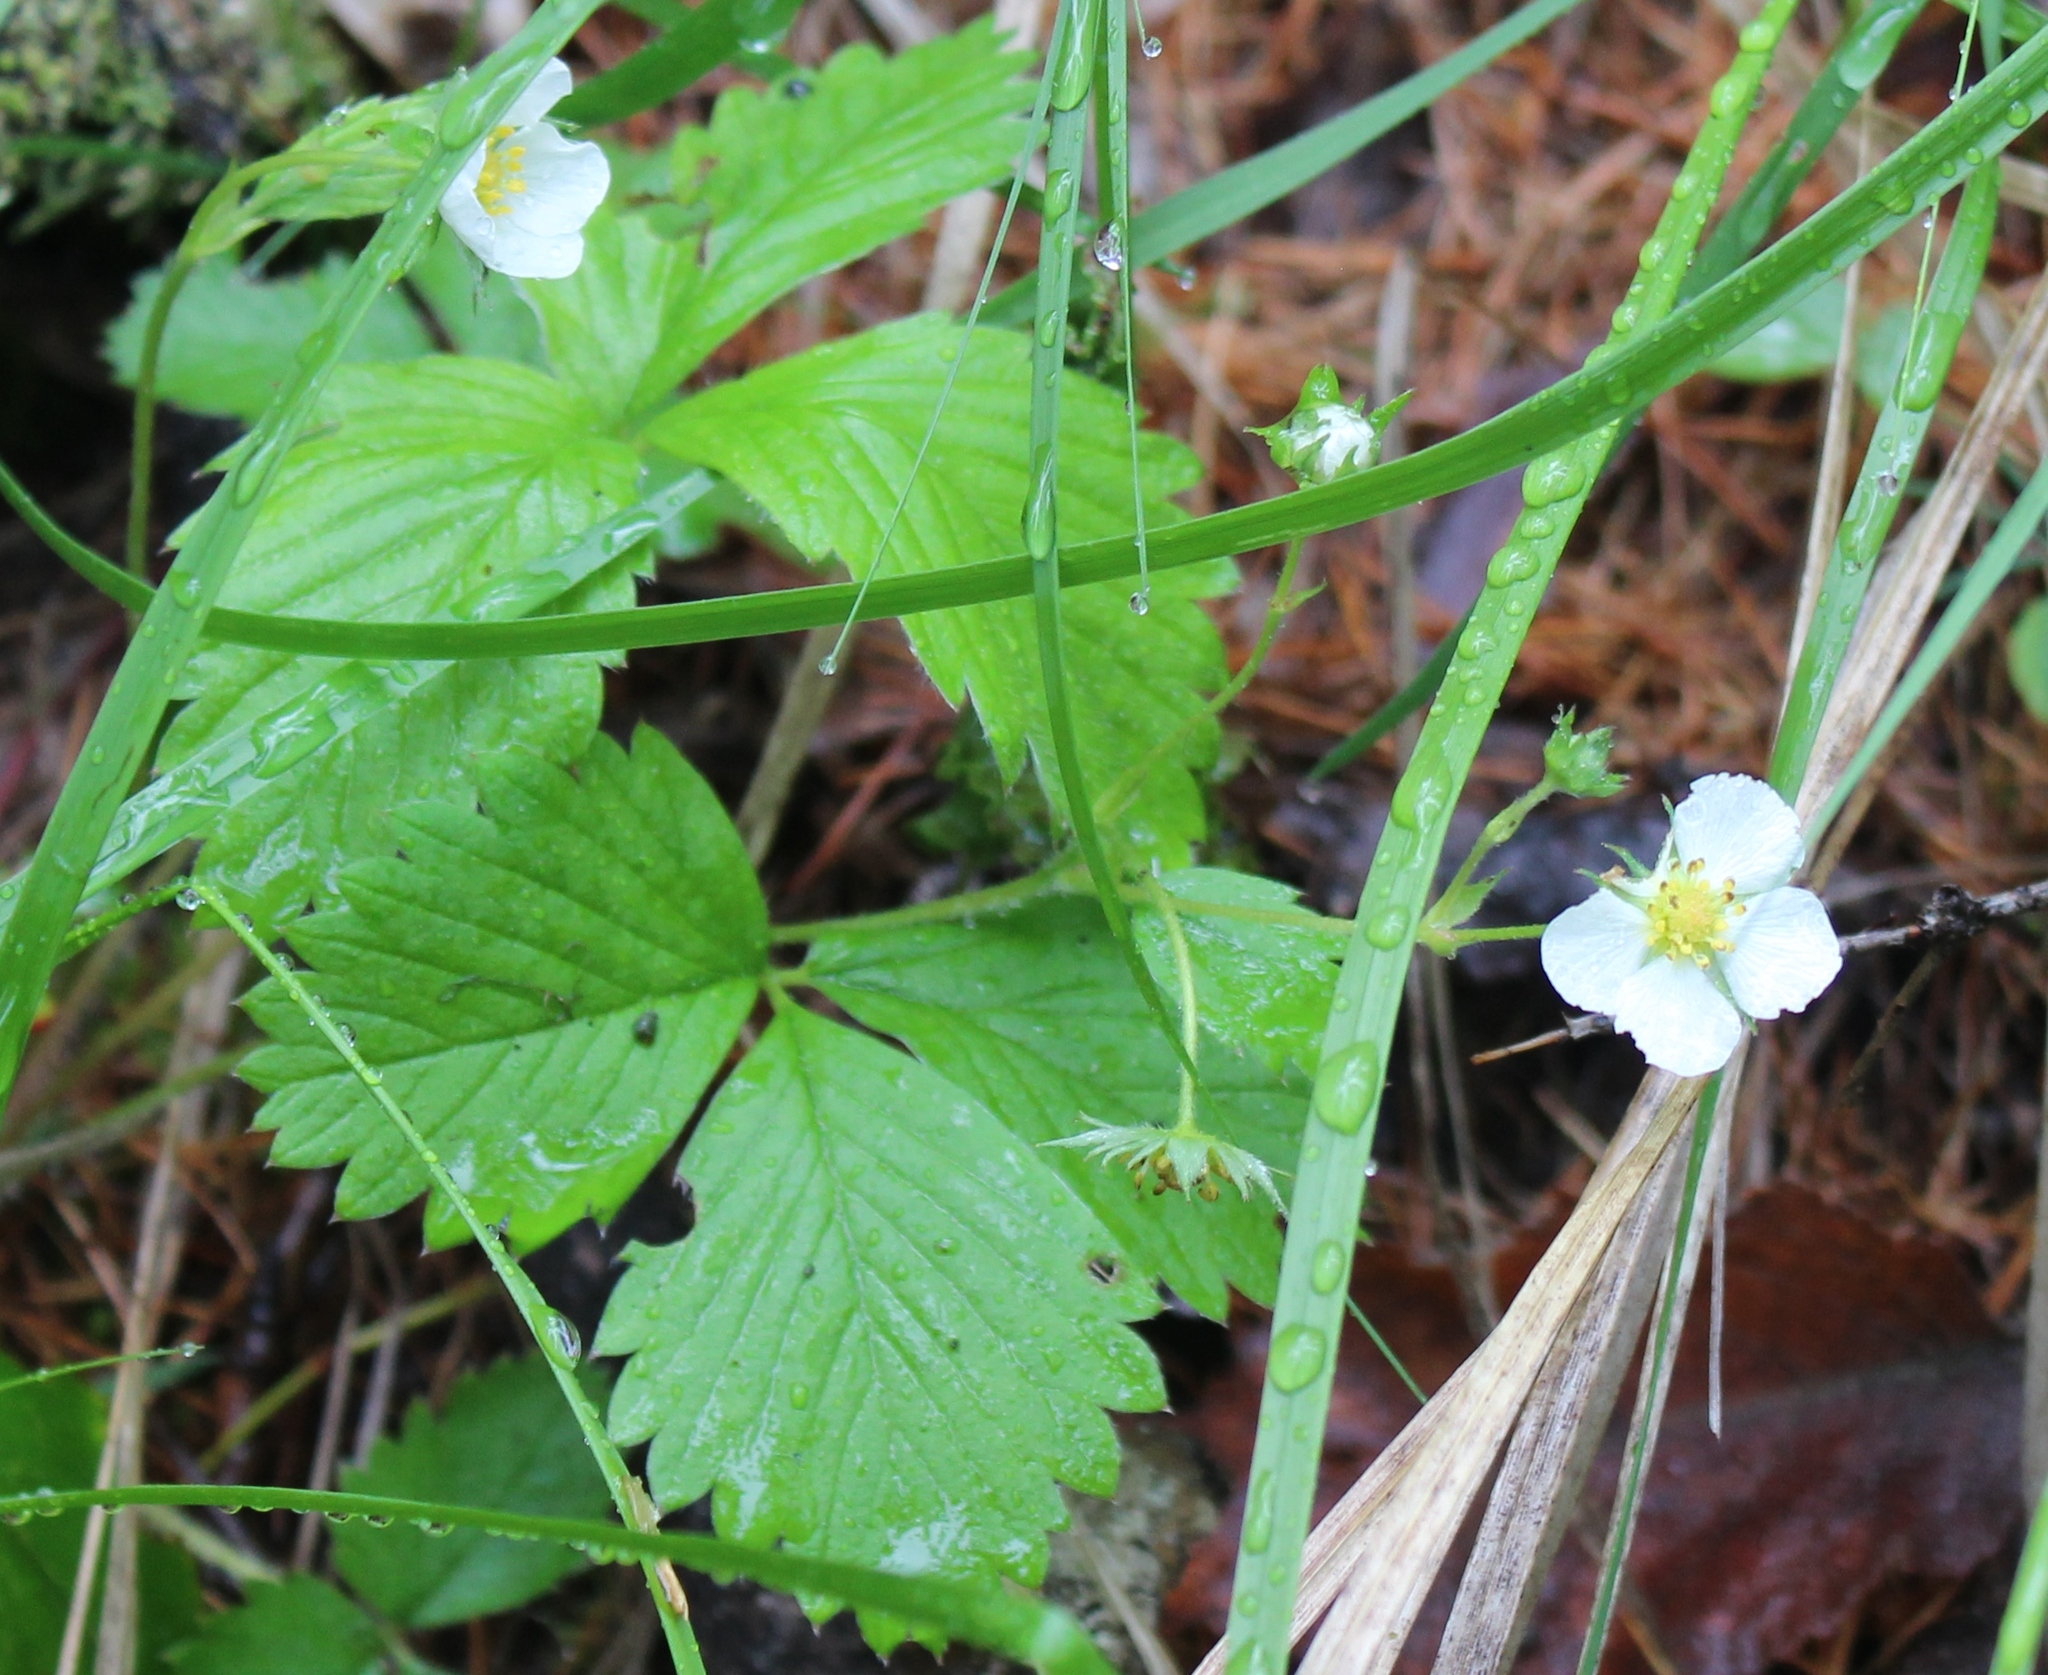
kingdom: Plantae
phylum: Tracheophyta
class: Magnoliopsida
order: Rosales
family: Rosaceae
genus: Fragaria
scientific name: Fragaria vesca
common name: Wild strawberry
